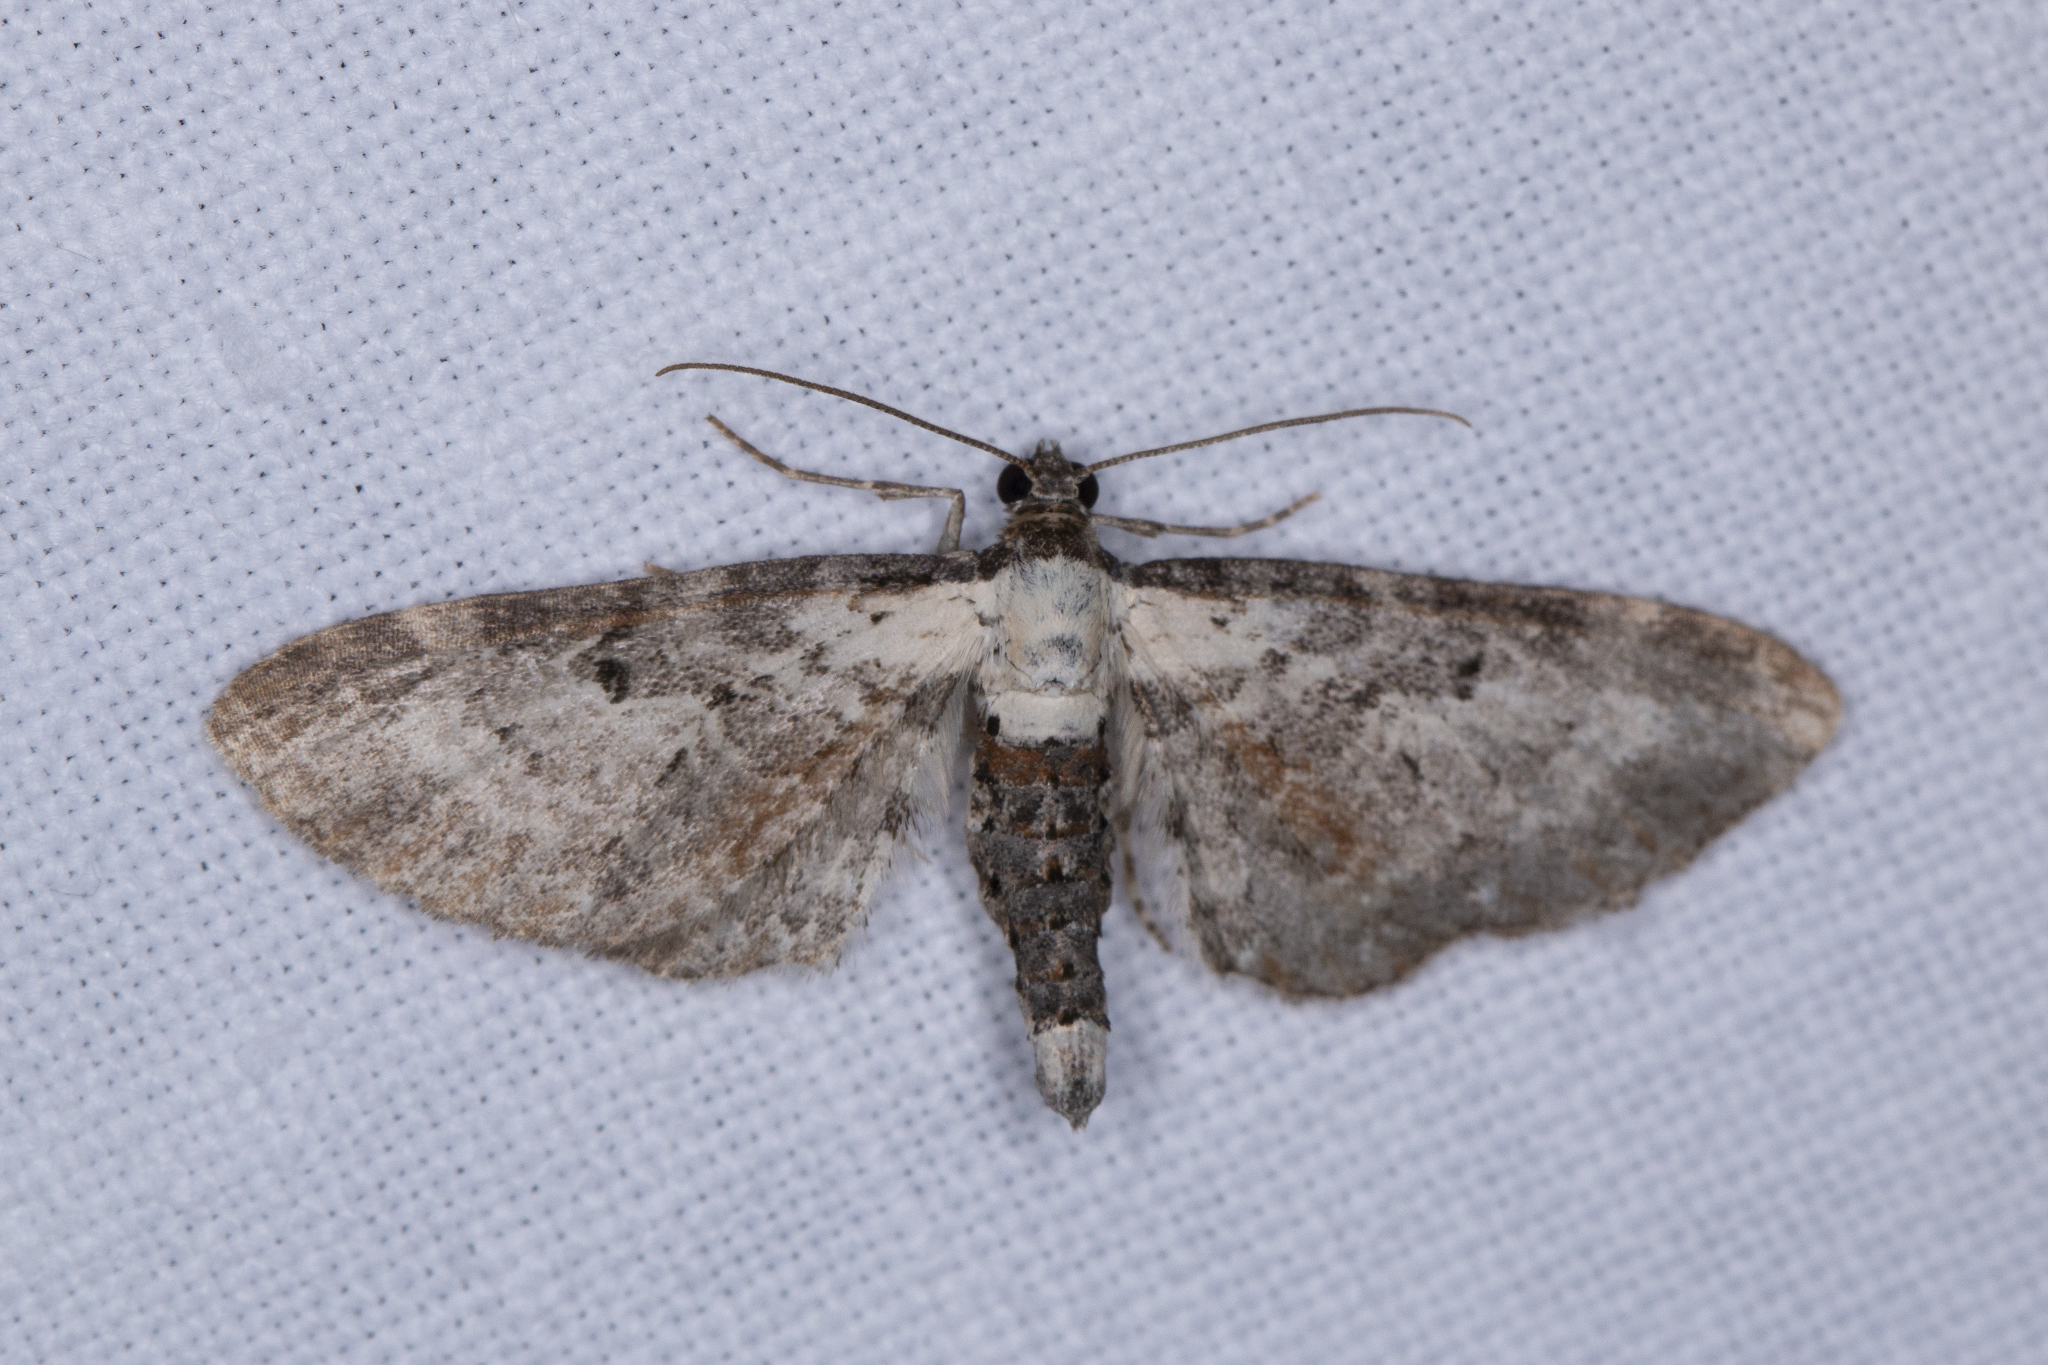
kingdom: Animalia
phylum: Arthropoda
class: Insecta
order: Lepidoptera
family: Geometridae
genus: Eupithecia
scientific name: Eupithecia succenturiata
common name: Bordered pug
